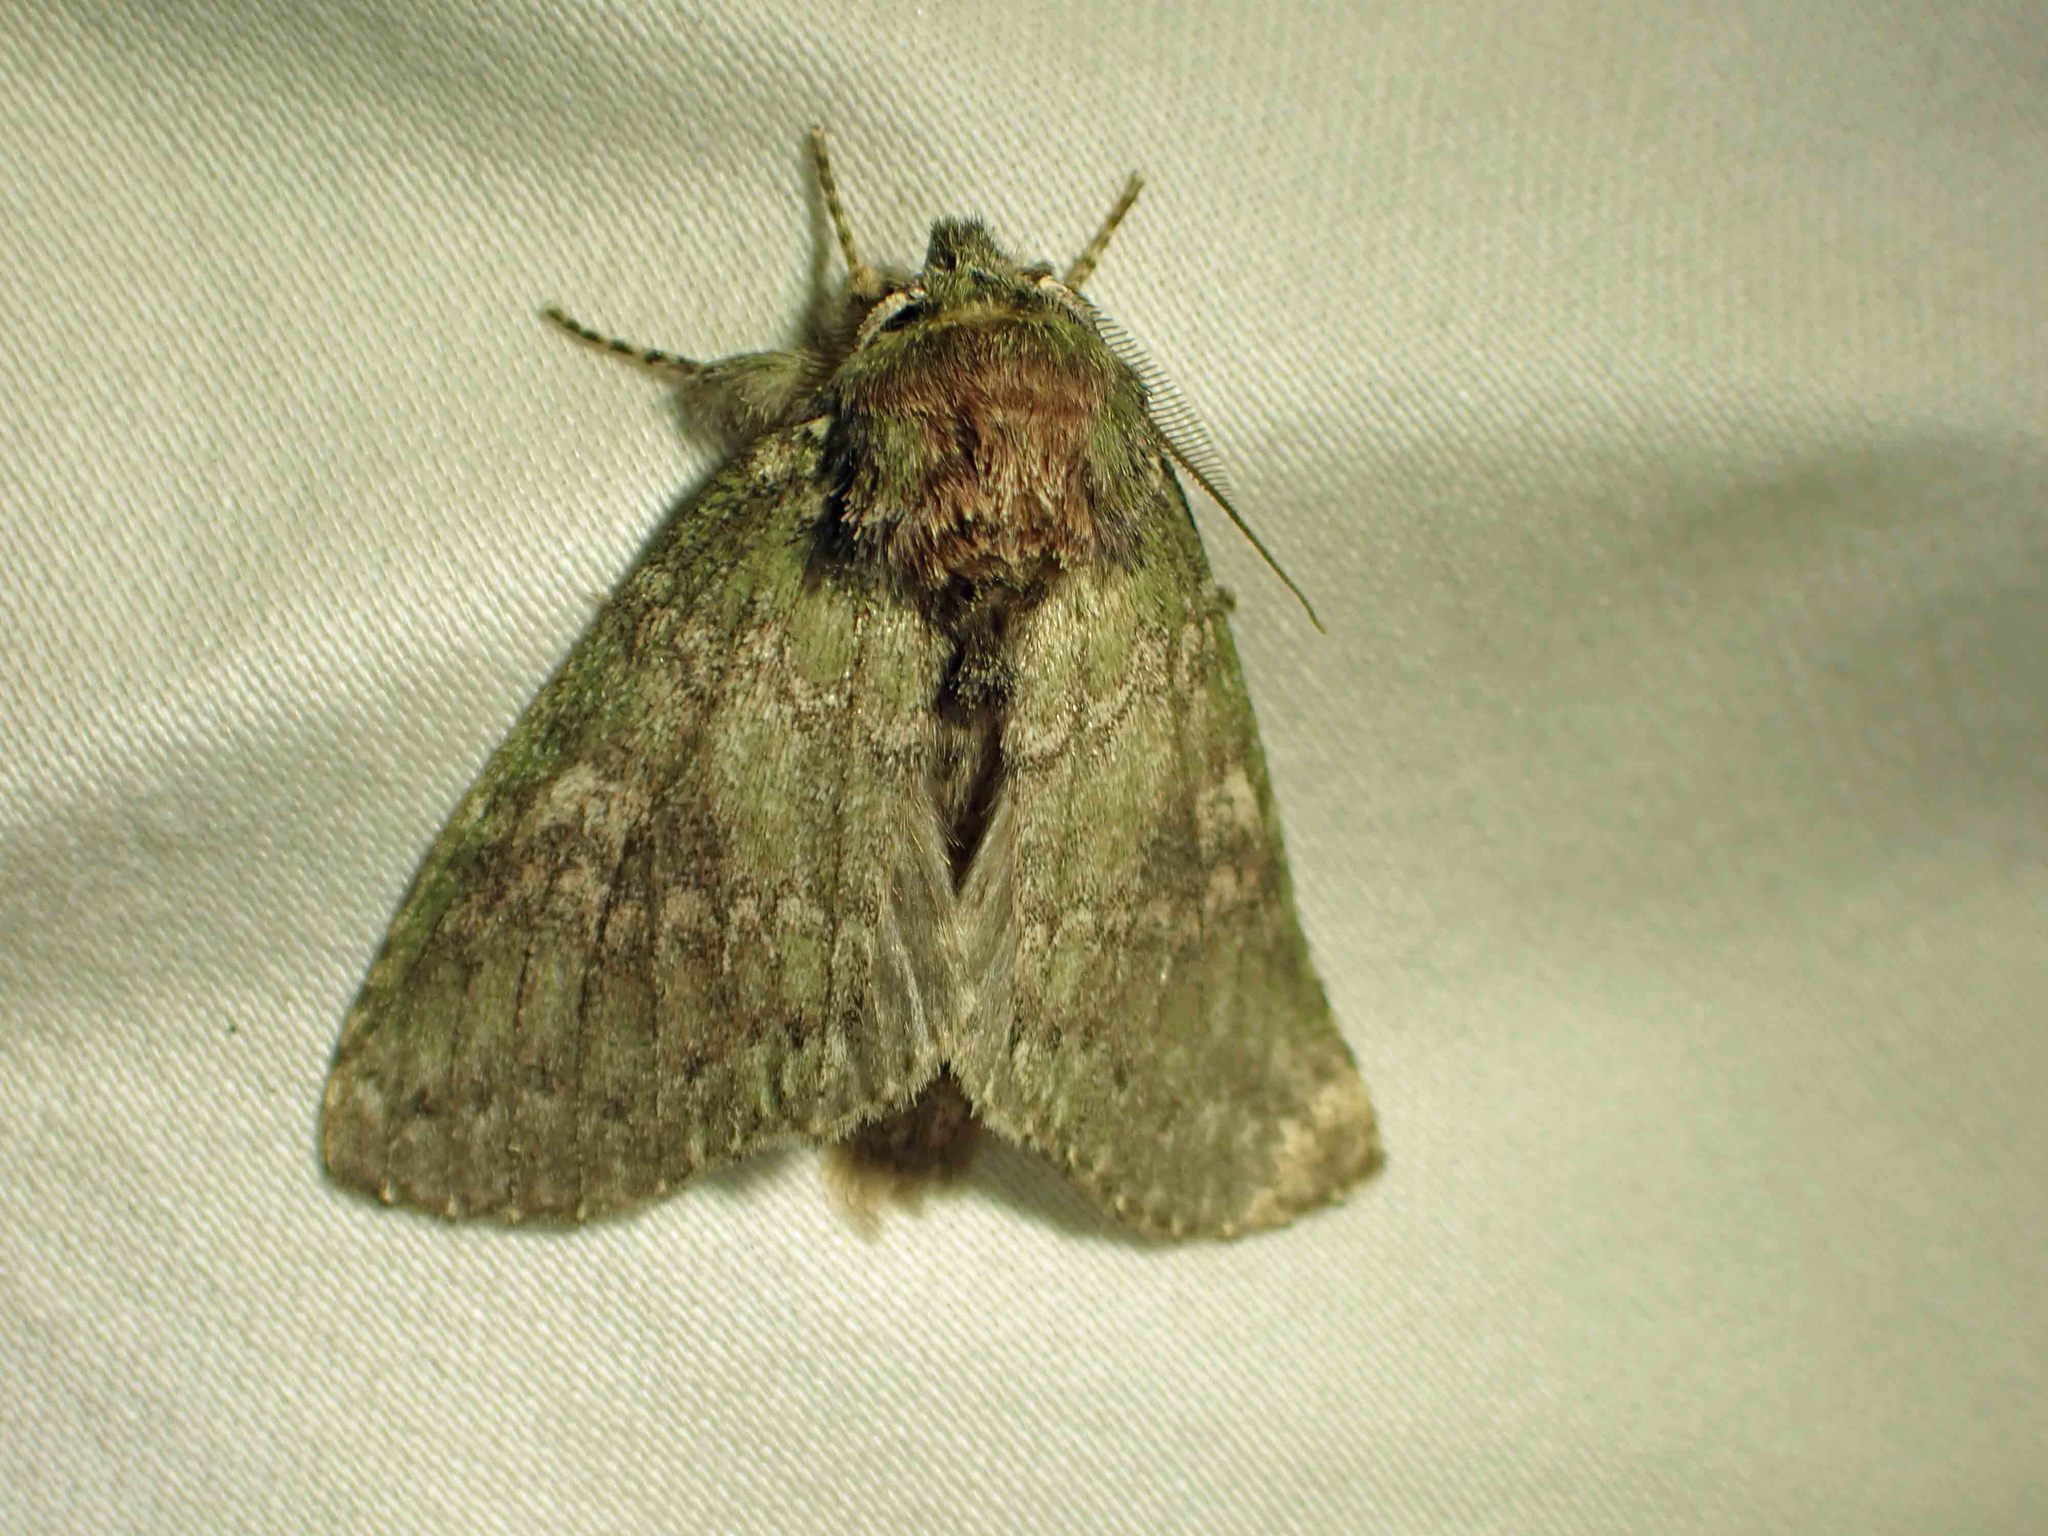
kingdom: Animalia
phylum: Arthropoda
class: Insecta
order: Lepidoptera
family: Notodontidae
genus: Disphragis
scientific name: Disphragis Cecrita biundata
